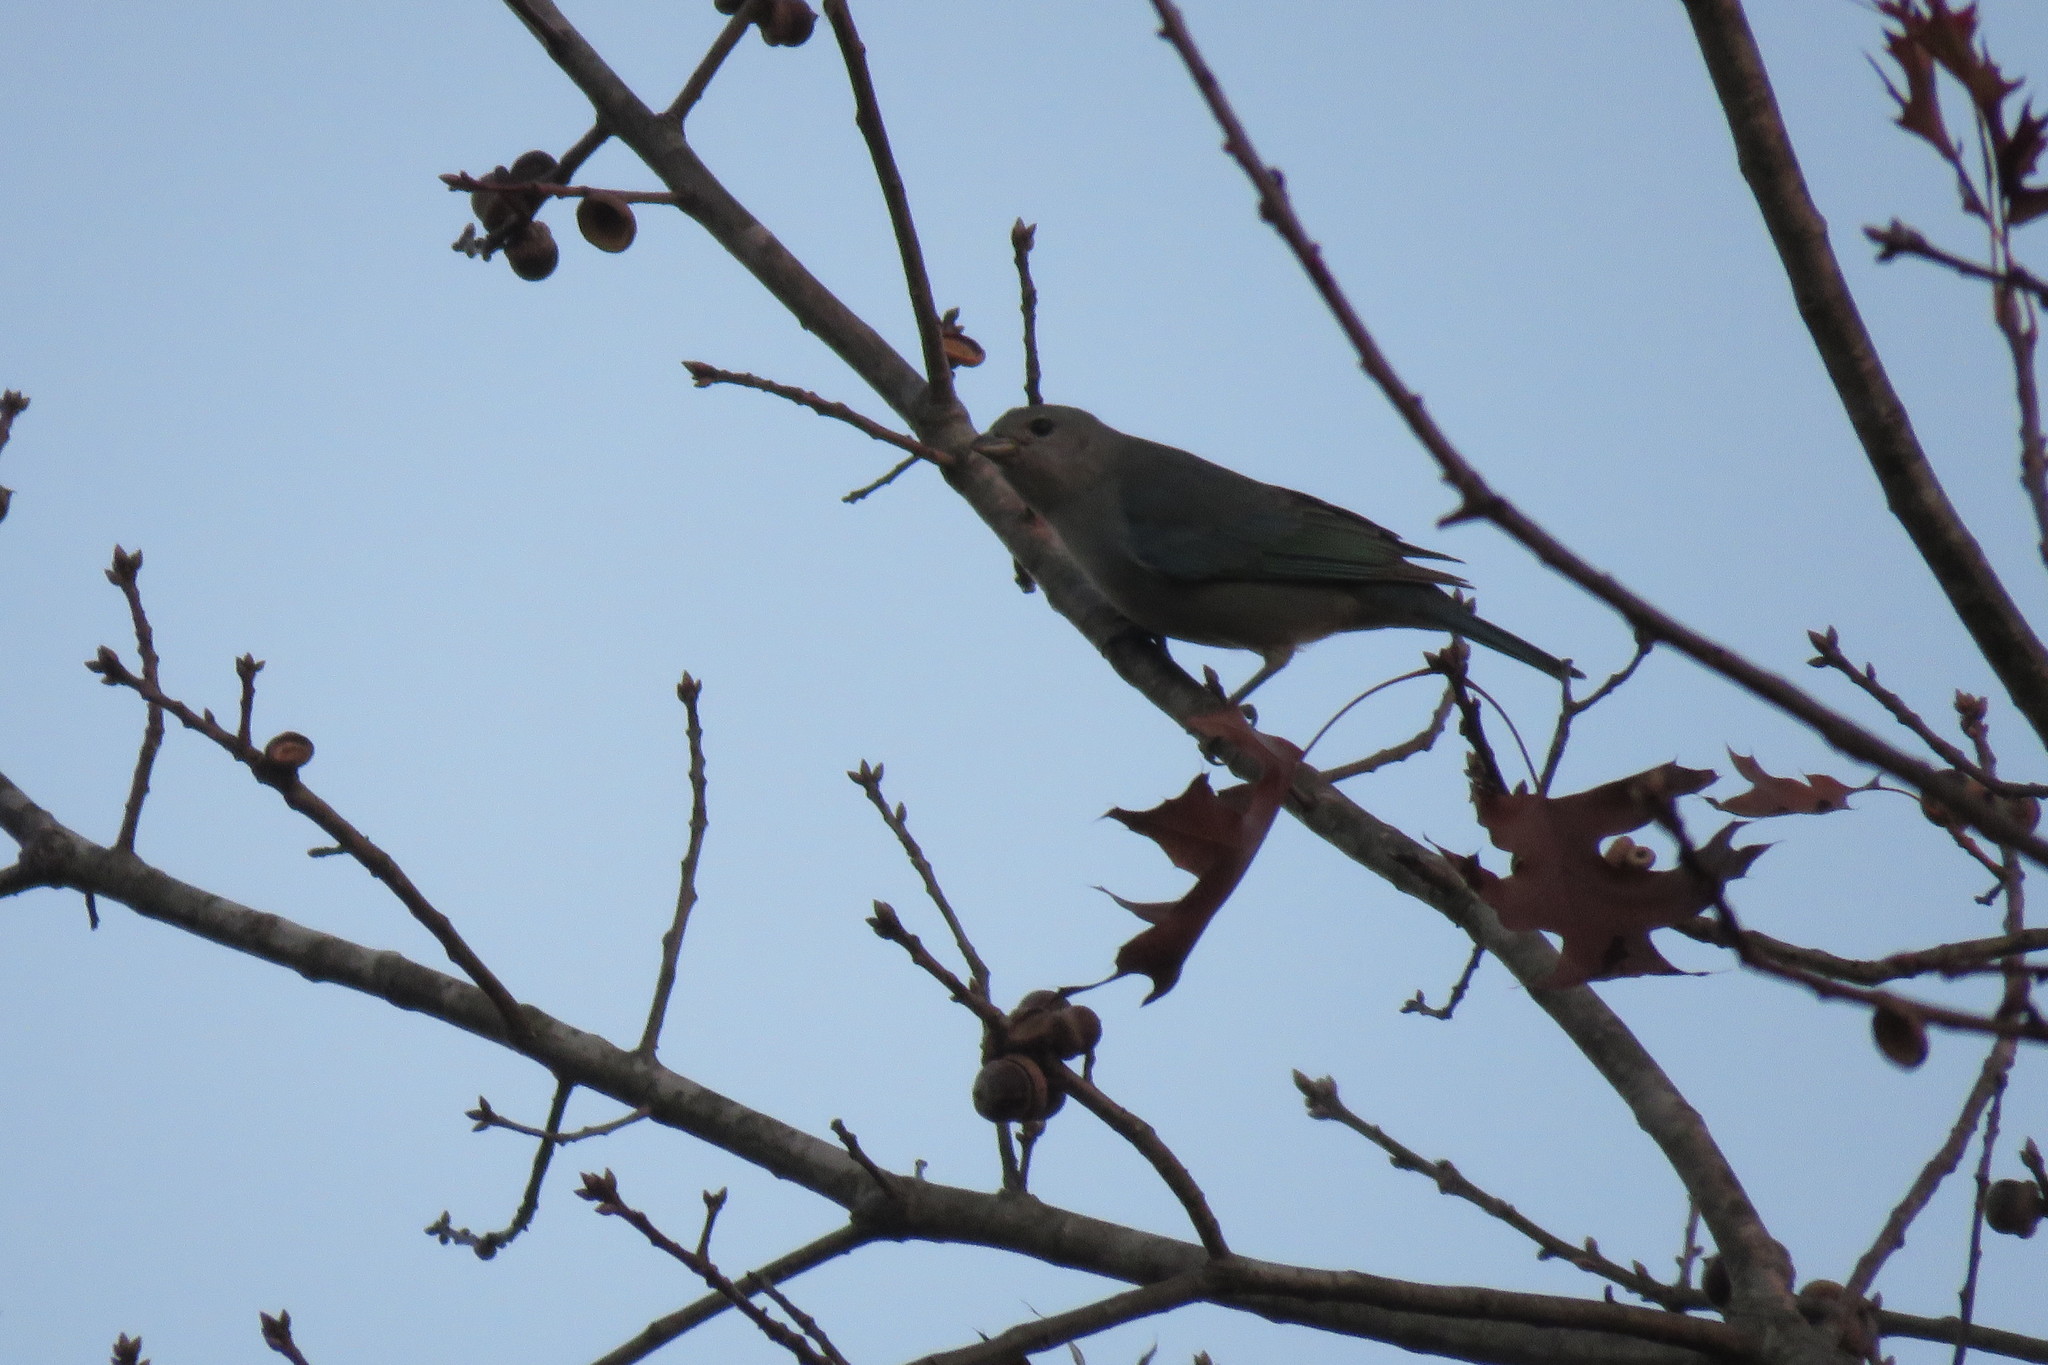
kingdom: Animalia
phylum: Chordata
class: Aves
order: Passeriformes
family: Thraupidae
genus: Thraupis
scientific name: Thraupis sayaca
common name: Sayaca tanager
